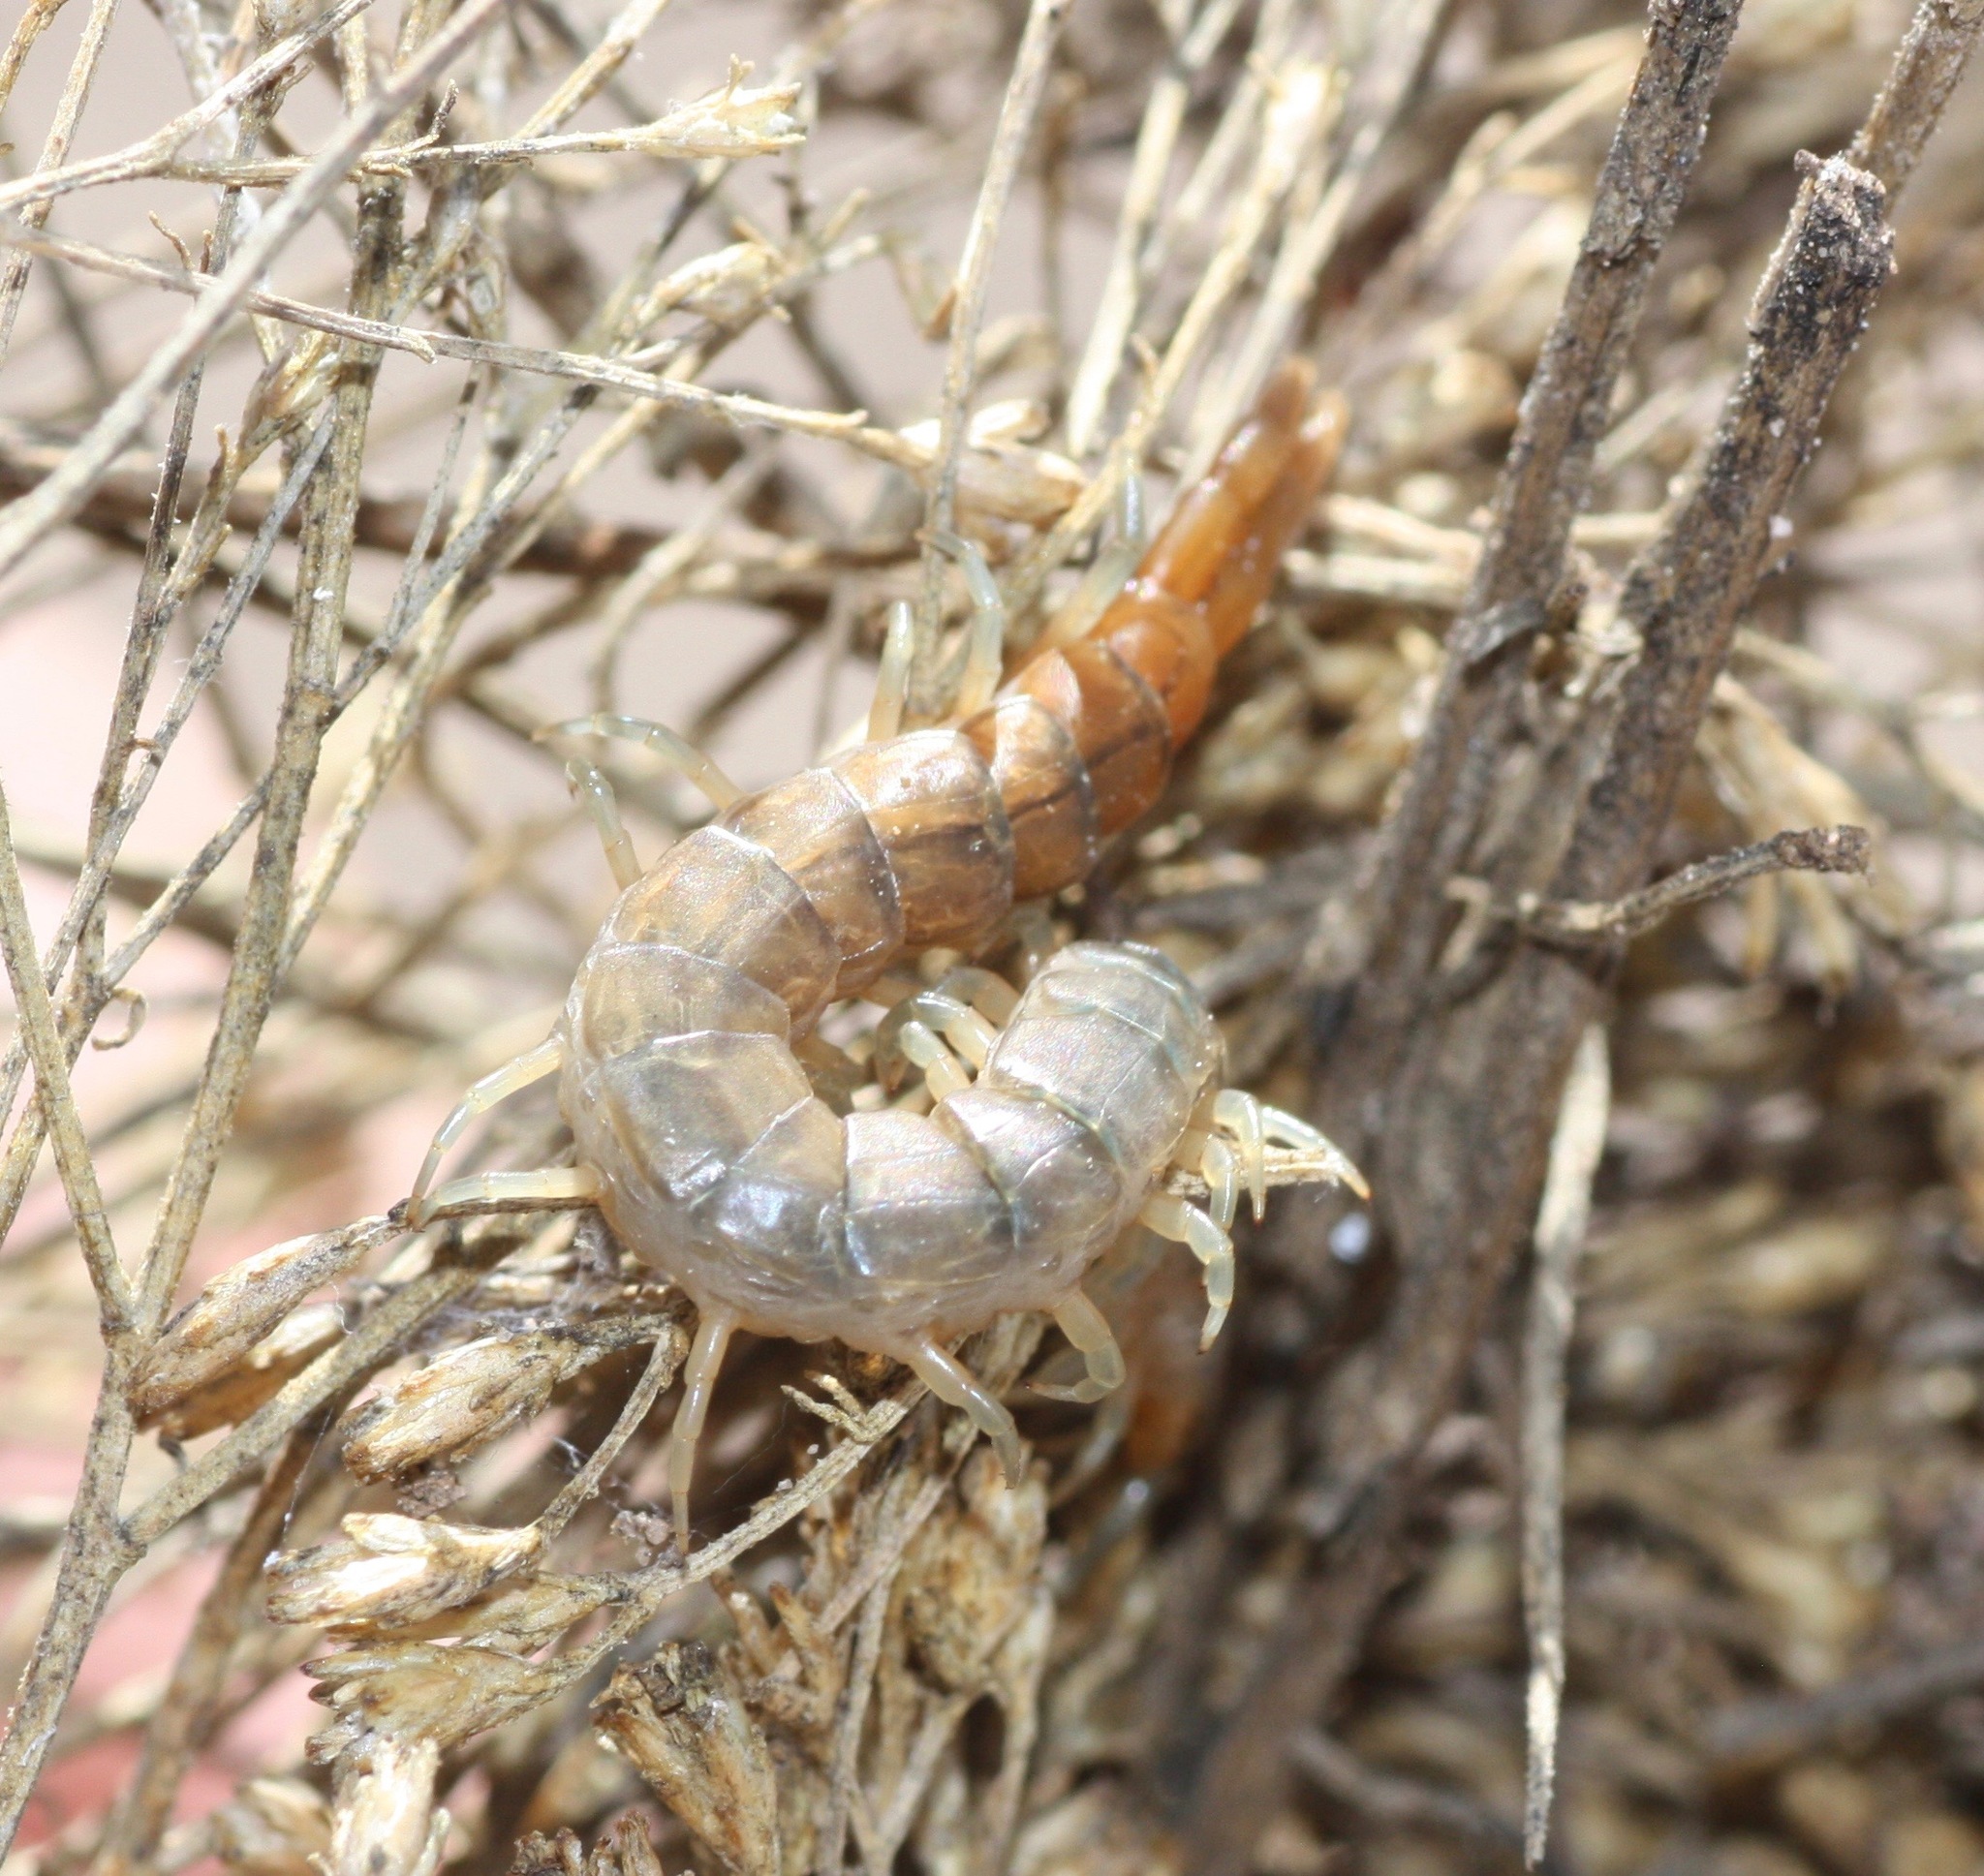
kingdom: Animalia
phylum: Arthropoda
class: Chilopoda
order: Scolopendromorpha
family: Scolopendridae
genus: Scolopendra
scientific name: Scolopendra viridis
